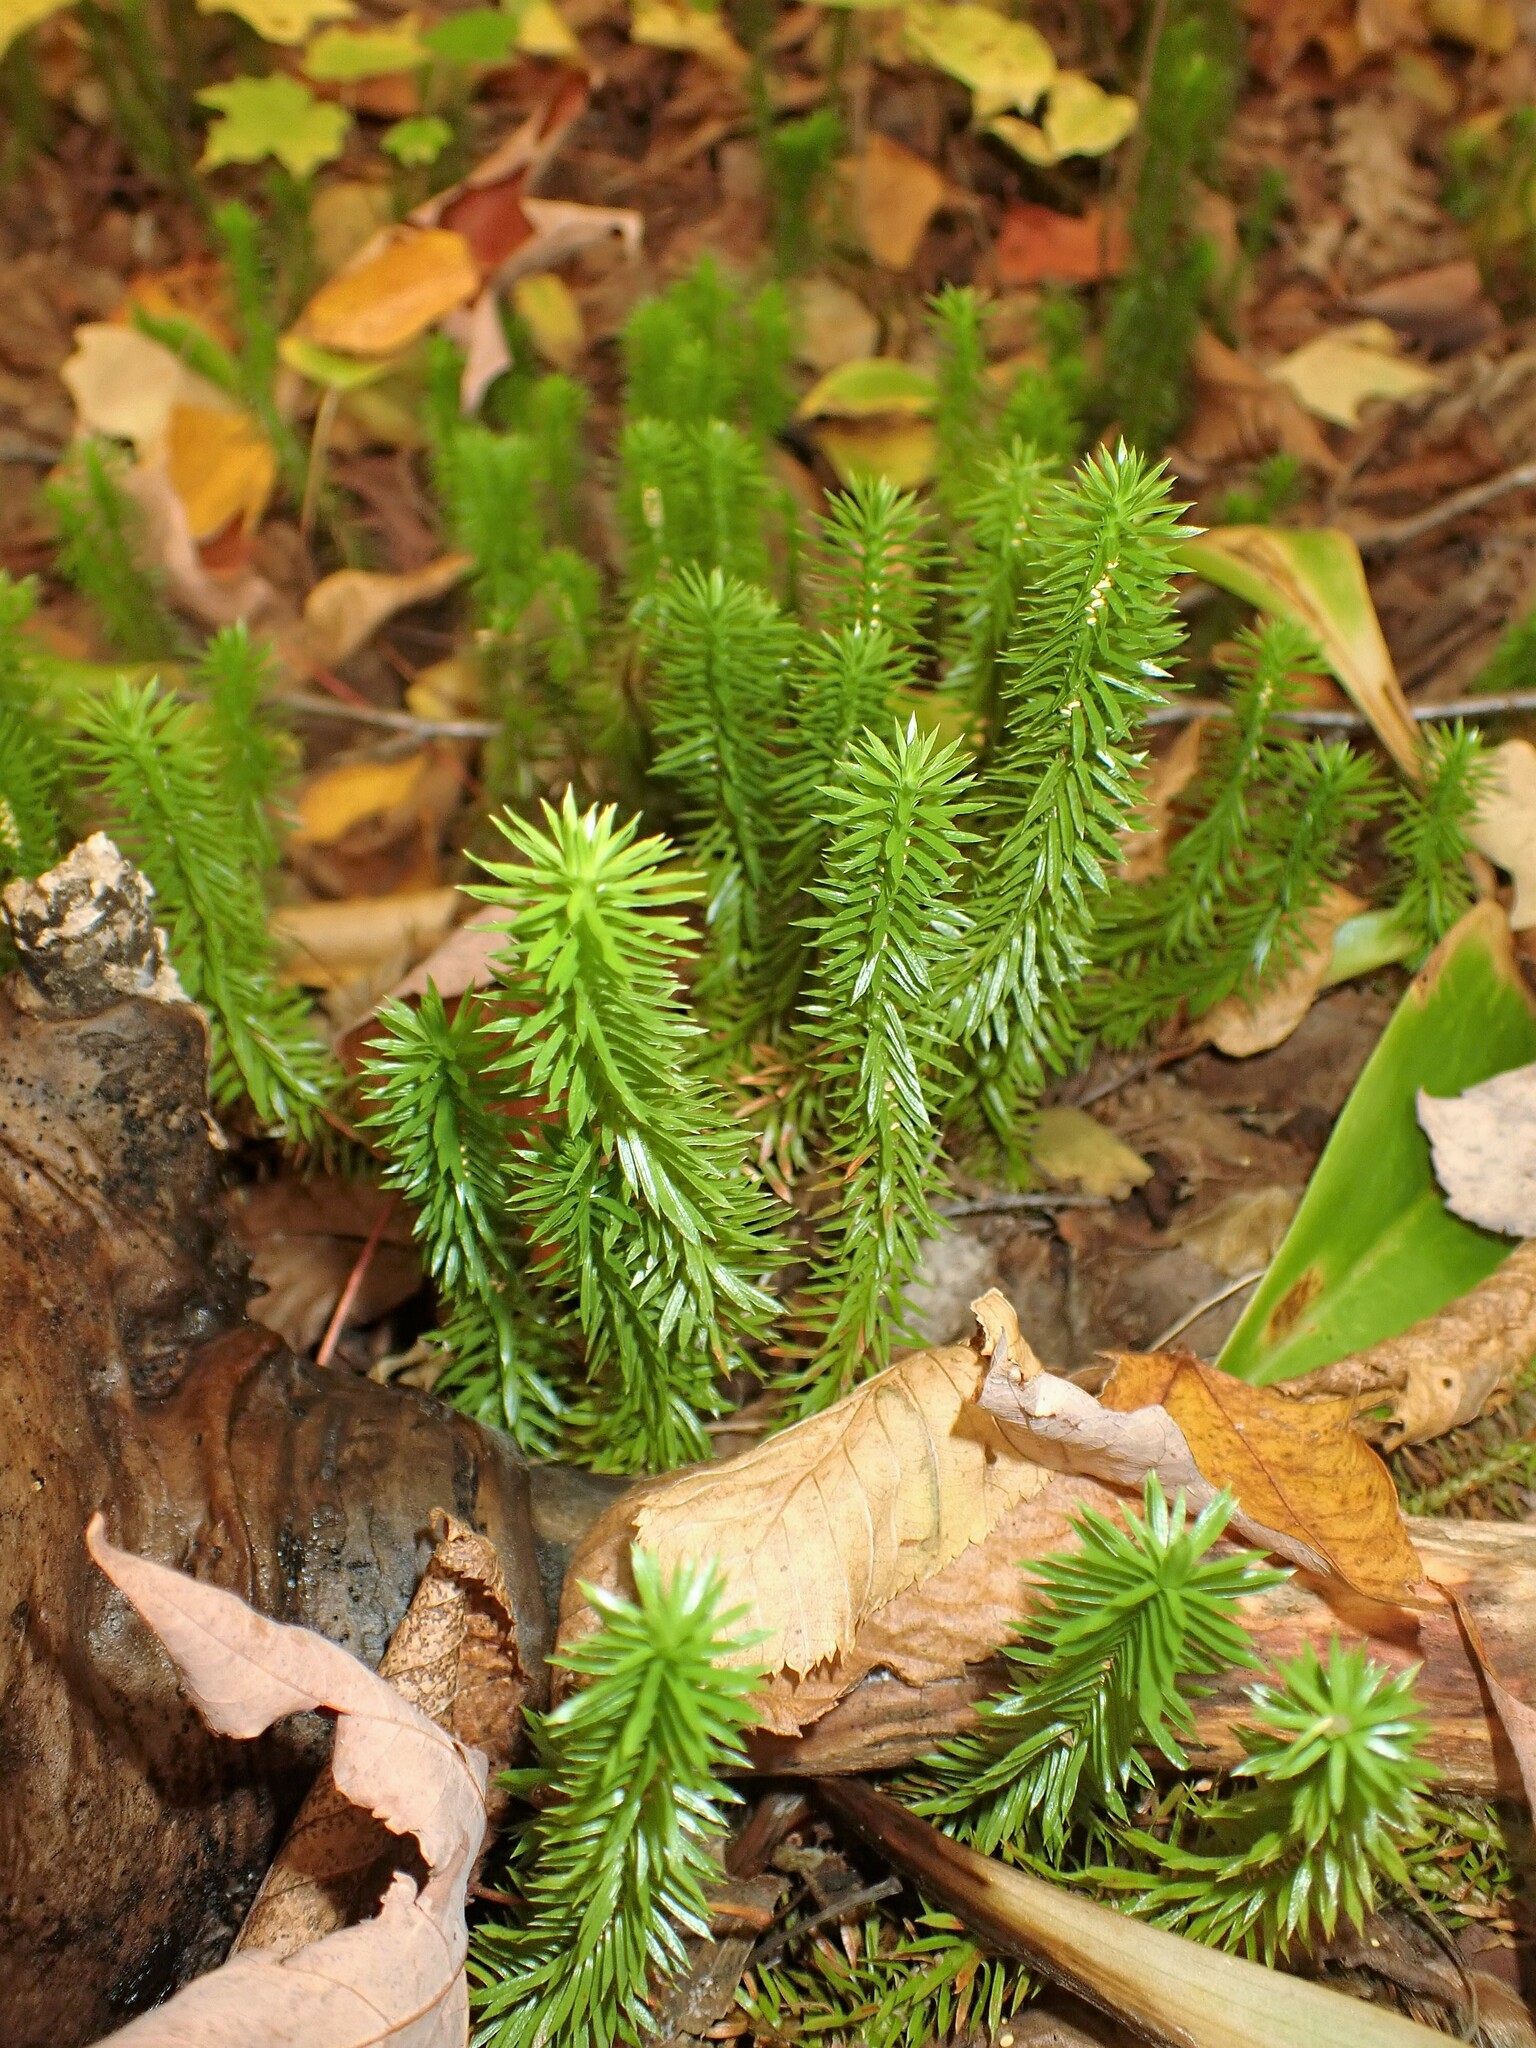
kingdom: Plantae
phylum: Tracheophyta
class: Lycopodiopsida
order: Lycopodiales
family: Lycopodiaceae
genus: Huperzia
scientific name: Huperzia lucidula
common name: Shining clubmoss
